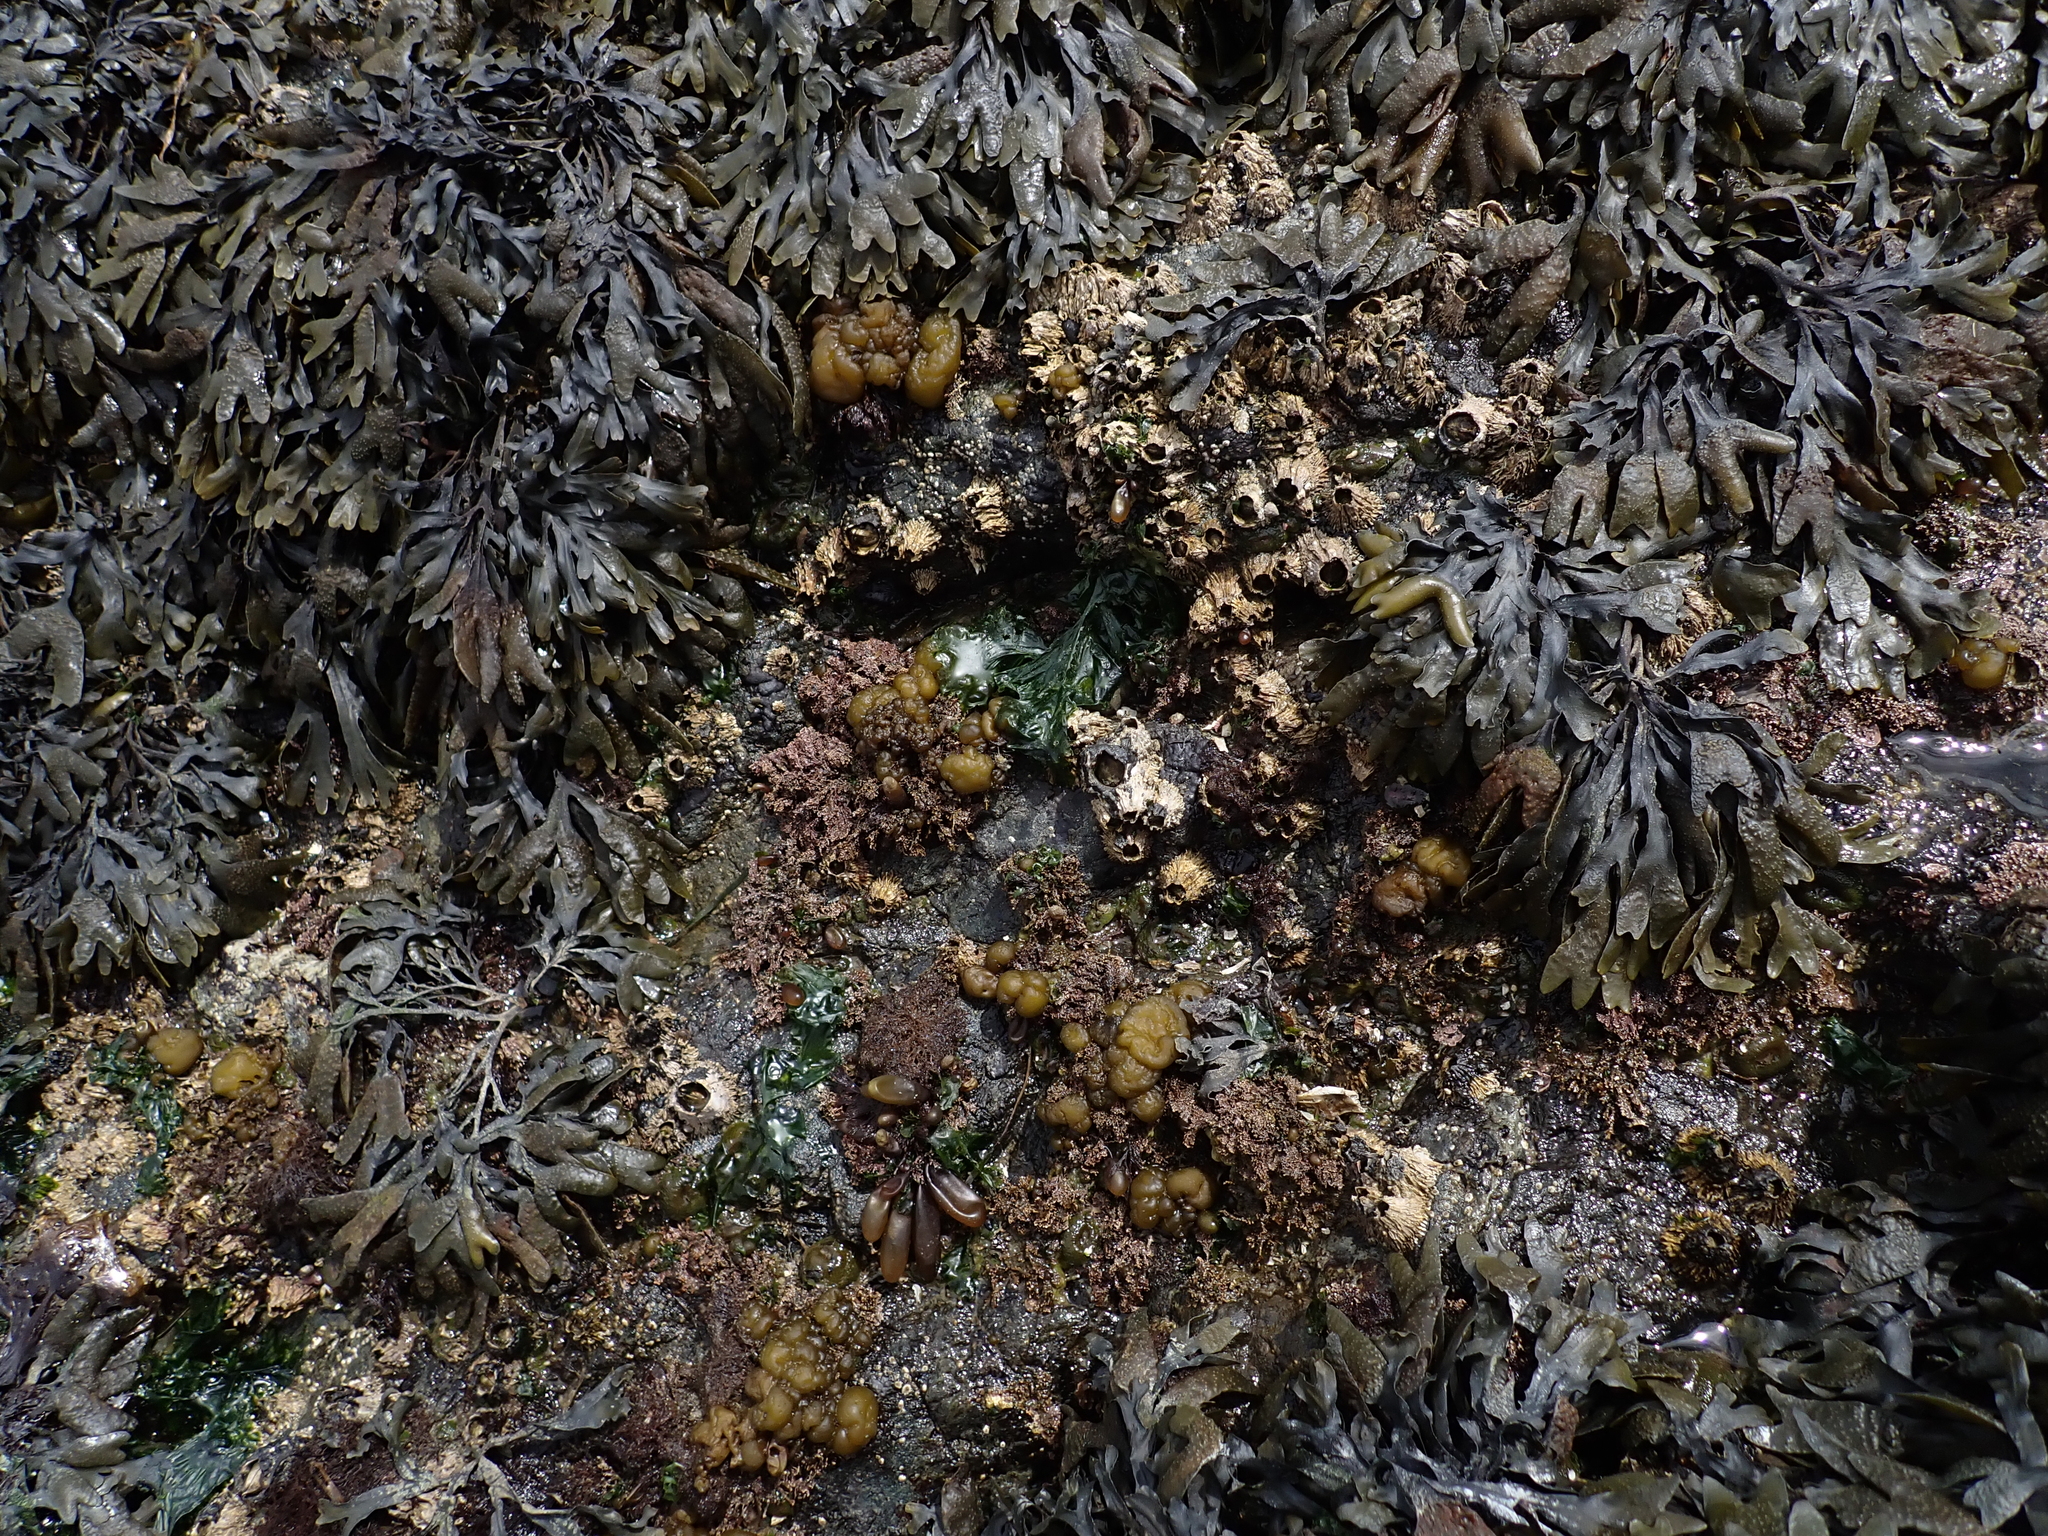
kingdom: Chromista
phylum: Ochrophyta
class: Phaeophyceae
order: Ectocarpales
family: Chordariaceae
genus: Leathesia
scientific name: Leathesia marina
